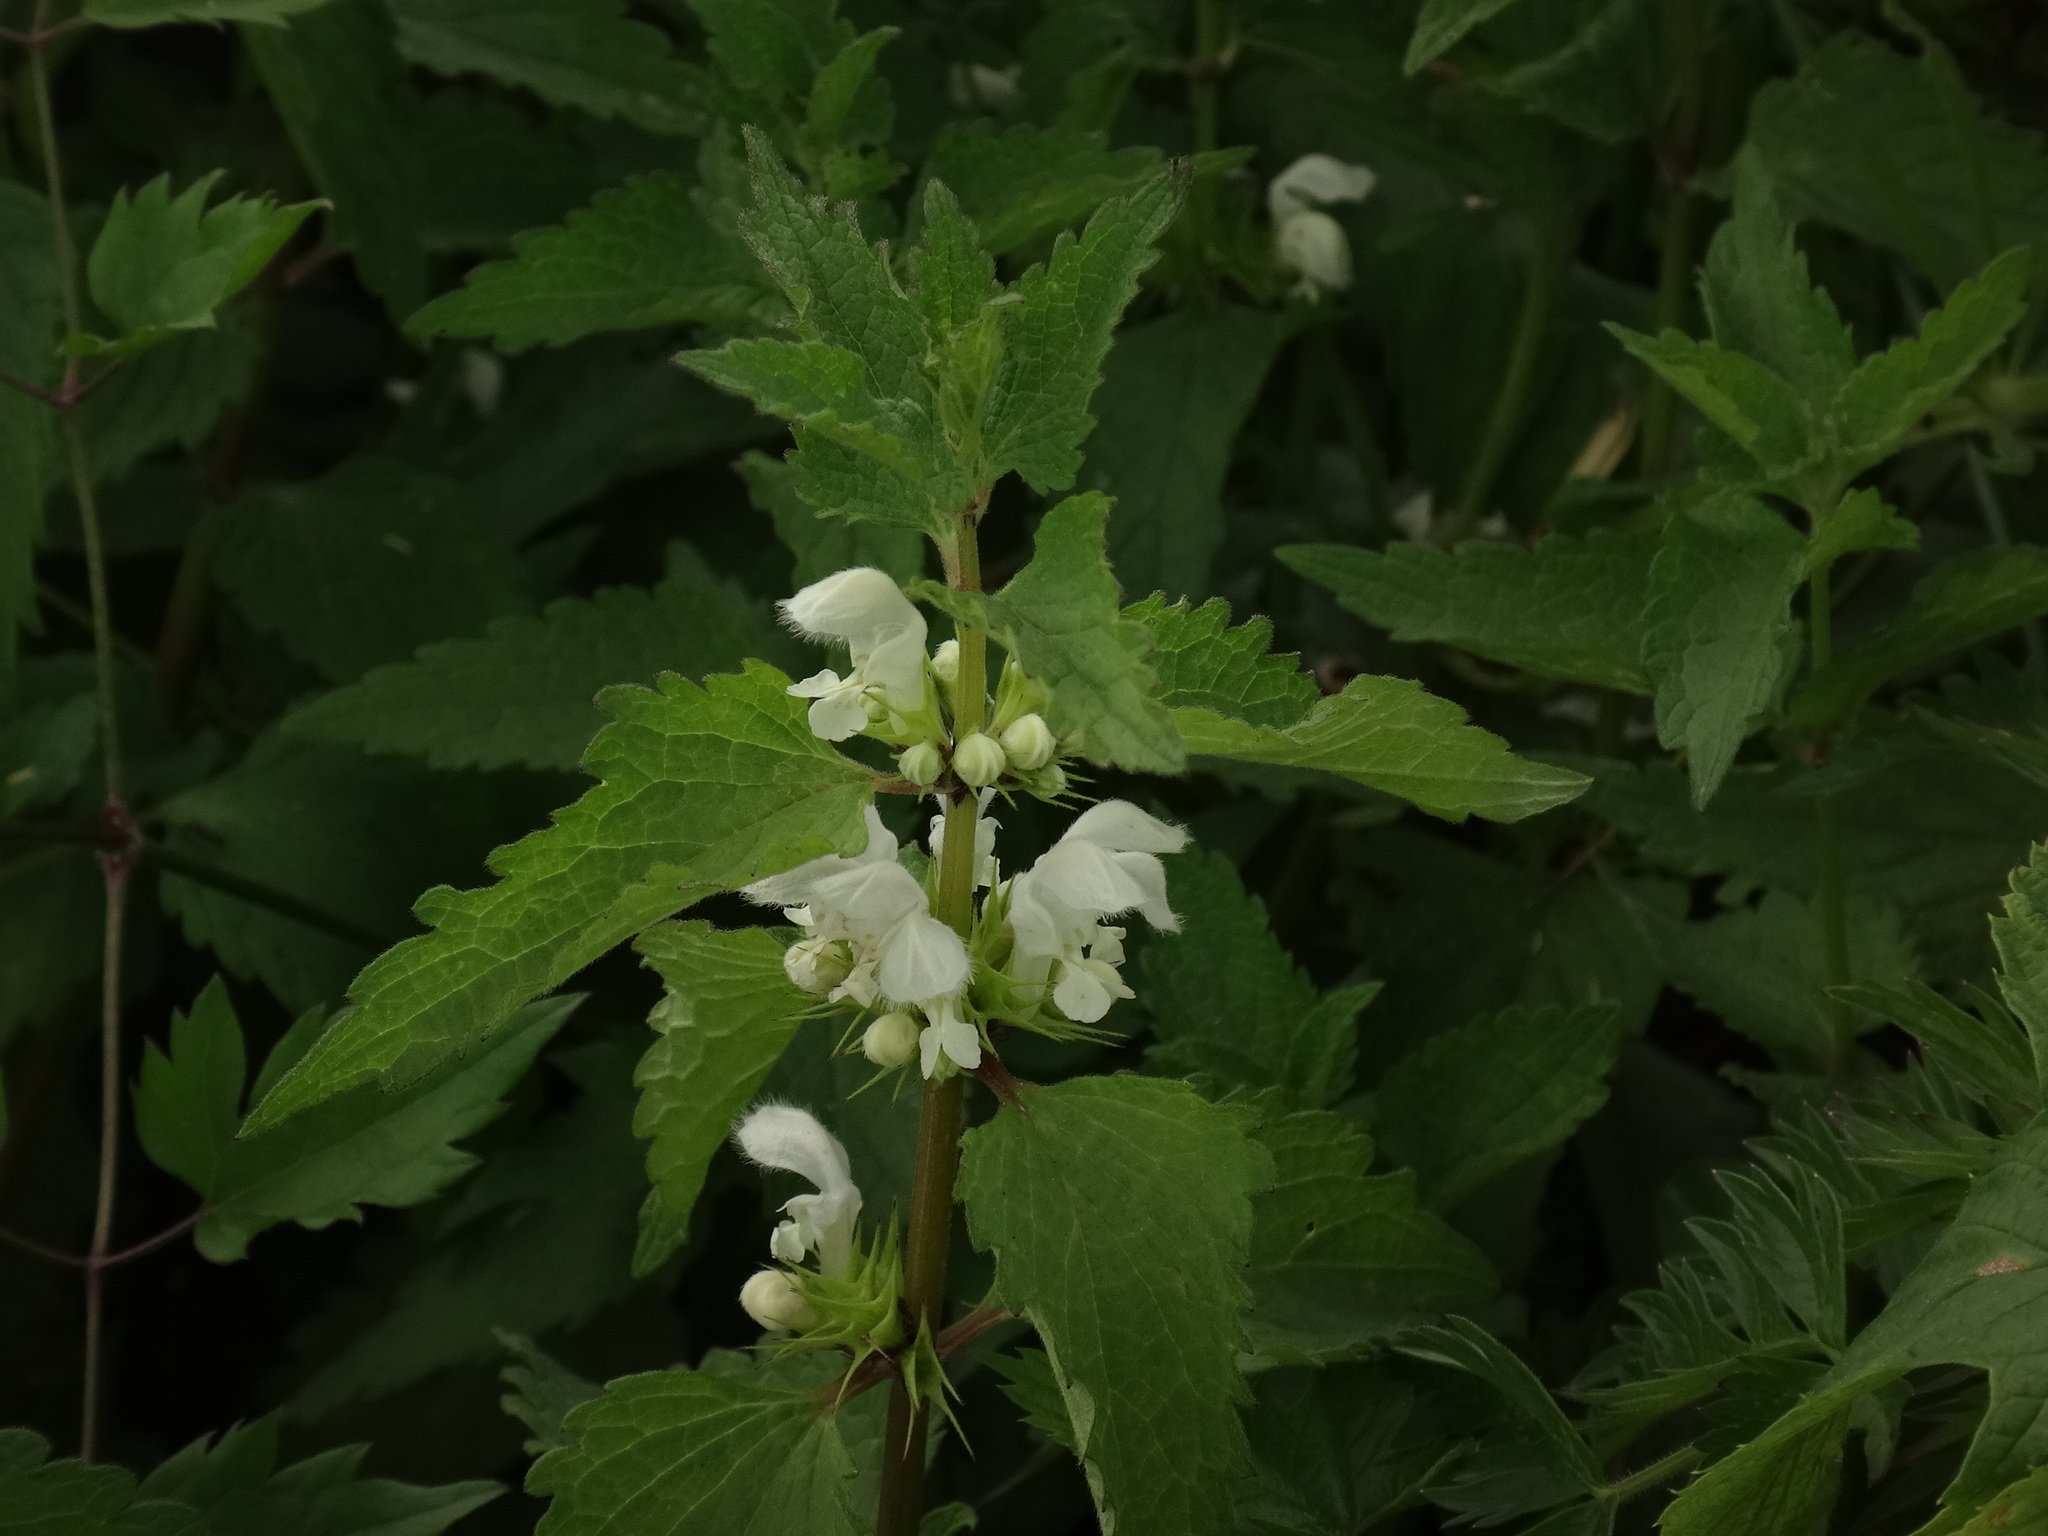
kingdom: Plantae
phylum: Tracheophyta
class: Magnoliopsida
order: Lamiales
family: Lamiaceae
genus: Lamium
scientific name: Lamium album
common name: White dead-nettle
